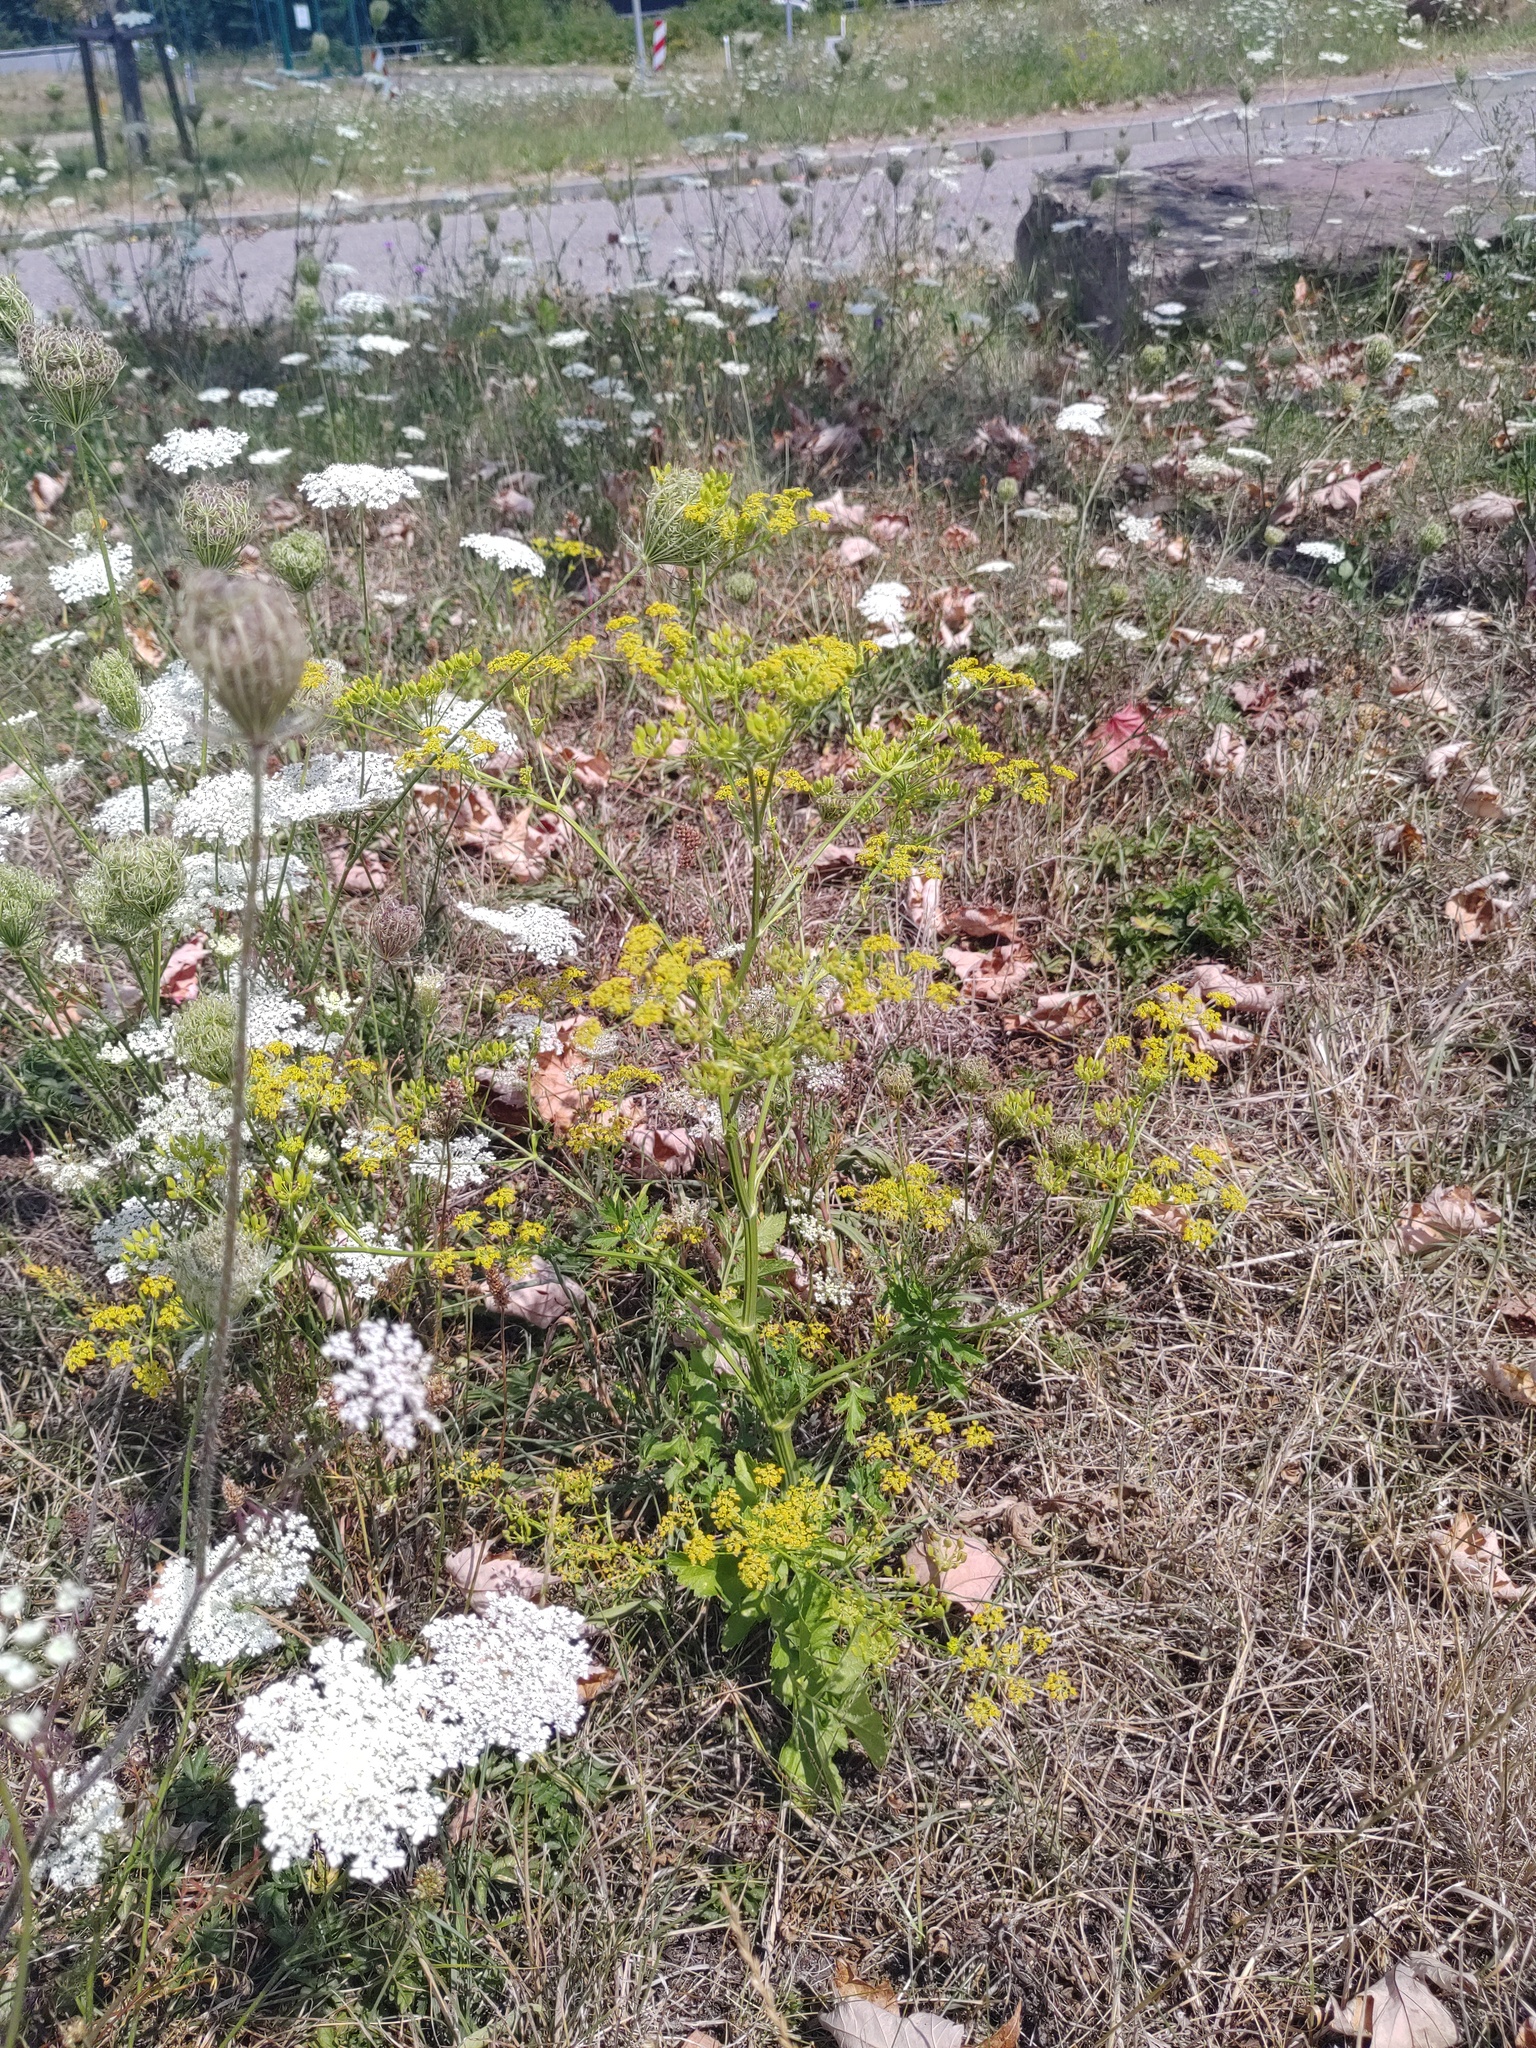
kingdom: Plantae
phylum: Tracheophyta
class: Magnoliopsida
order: Apiales
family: Apiaceae
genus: Pastinaca
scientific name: Pastinaca sativa
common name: Wild parsnip
